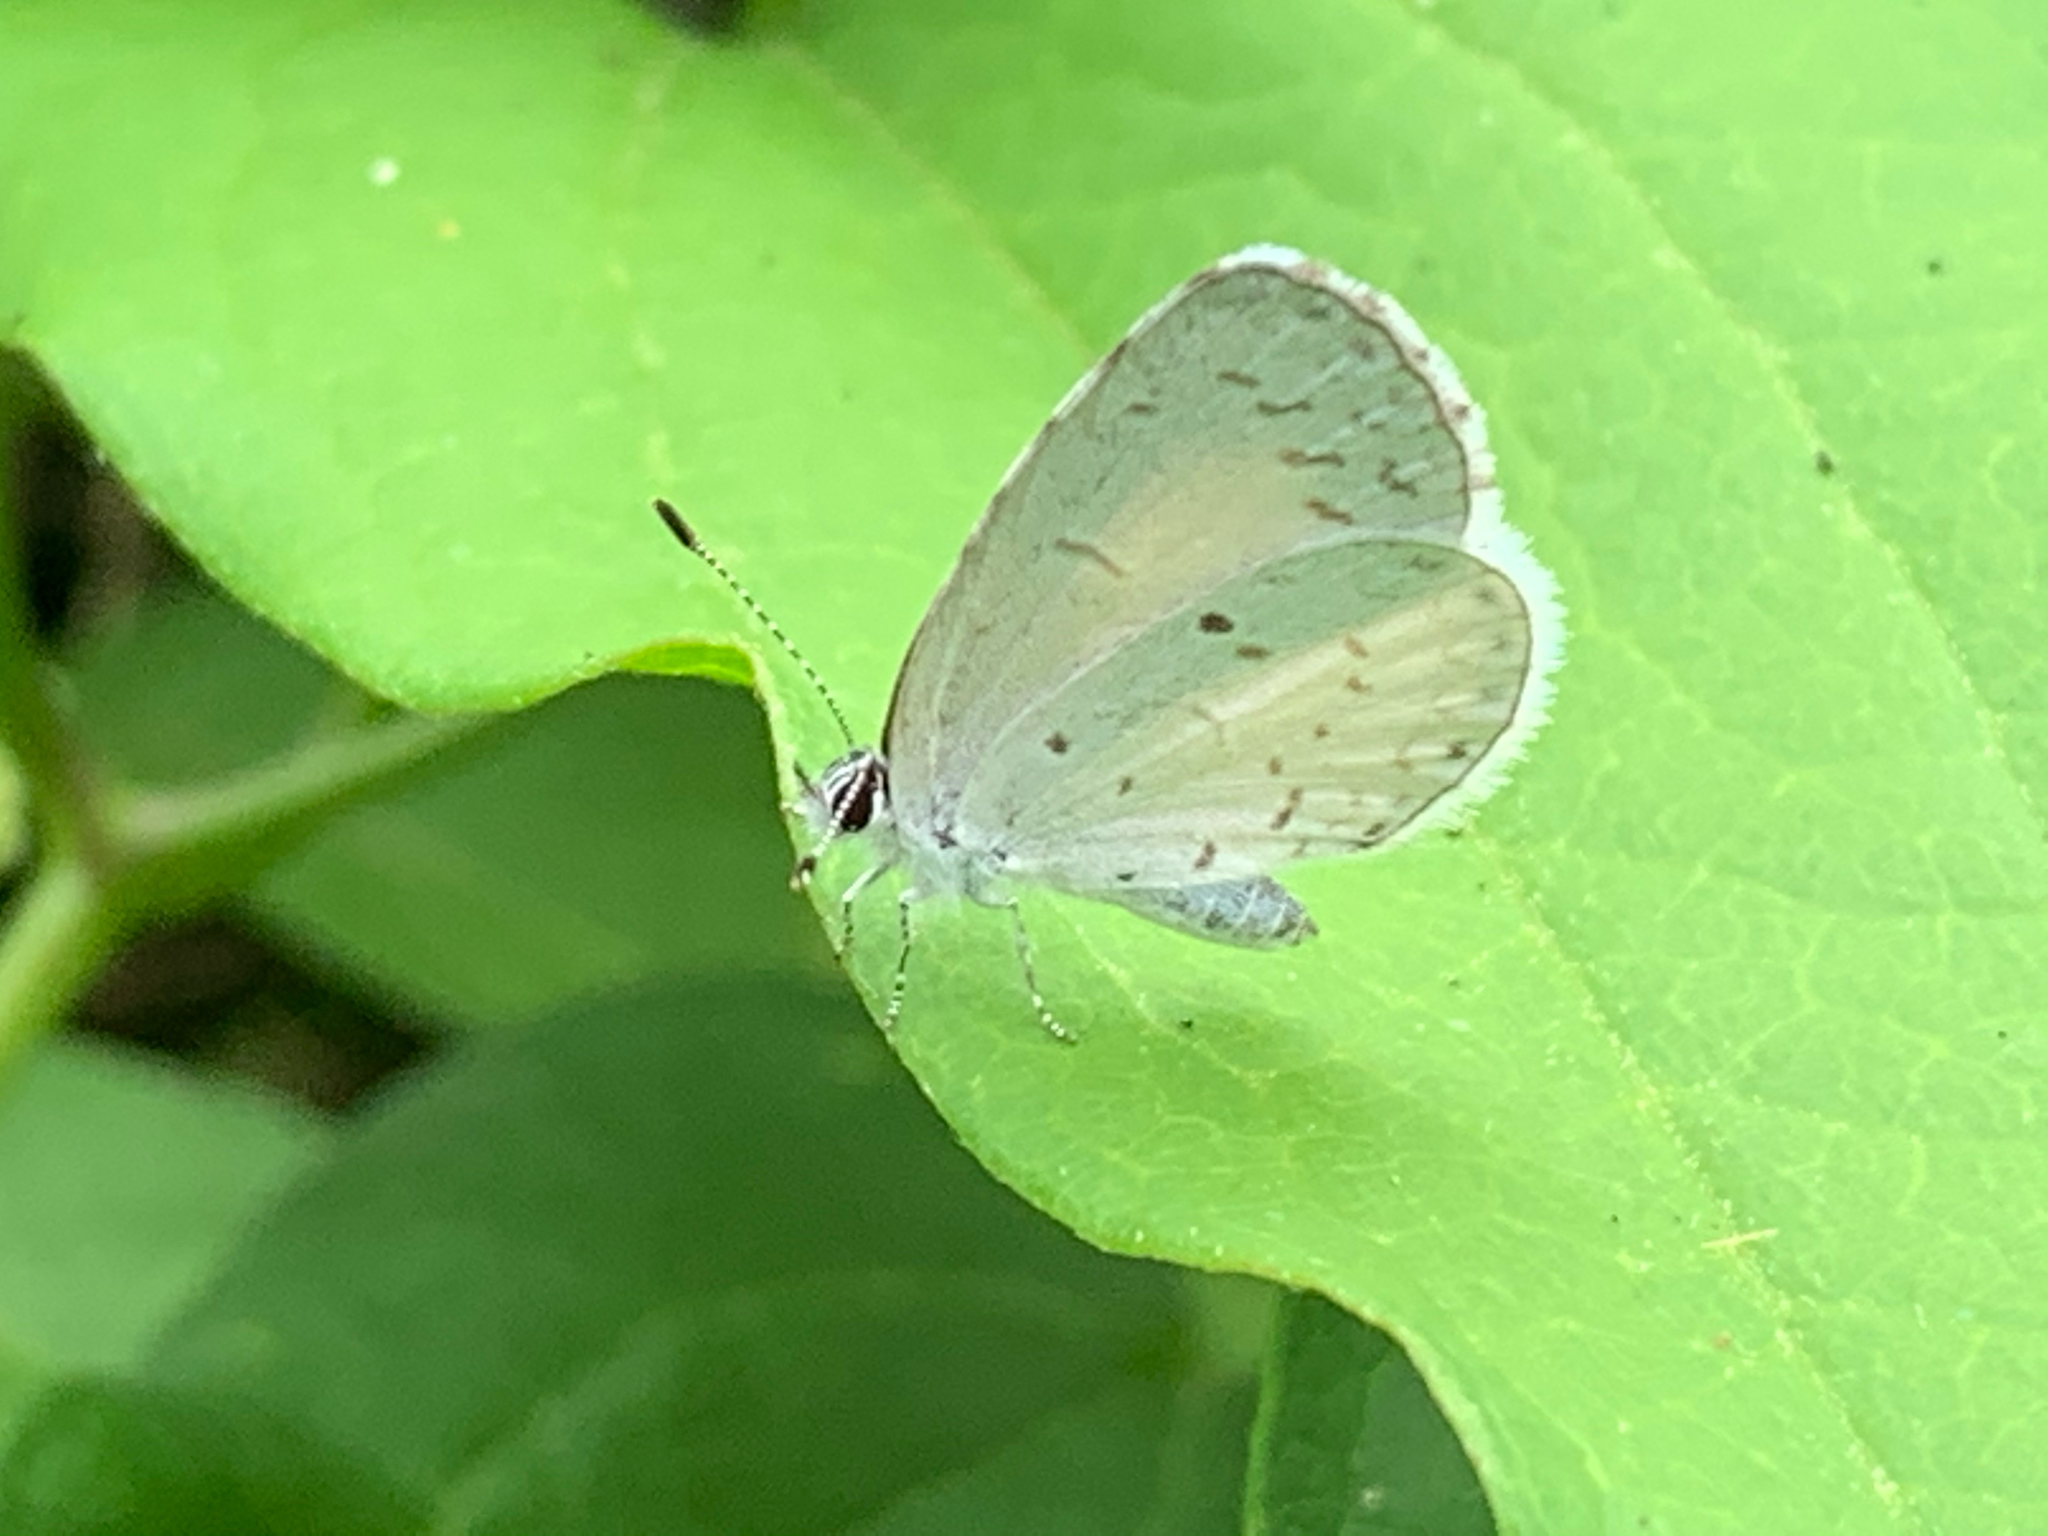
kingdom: Animalia
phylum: Arthropoda
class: Insecta
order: Lepidoptera
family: Lycaenidae
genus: Cyaniris
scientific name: Cyaniris neglecta
